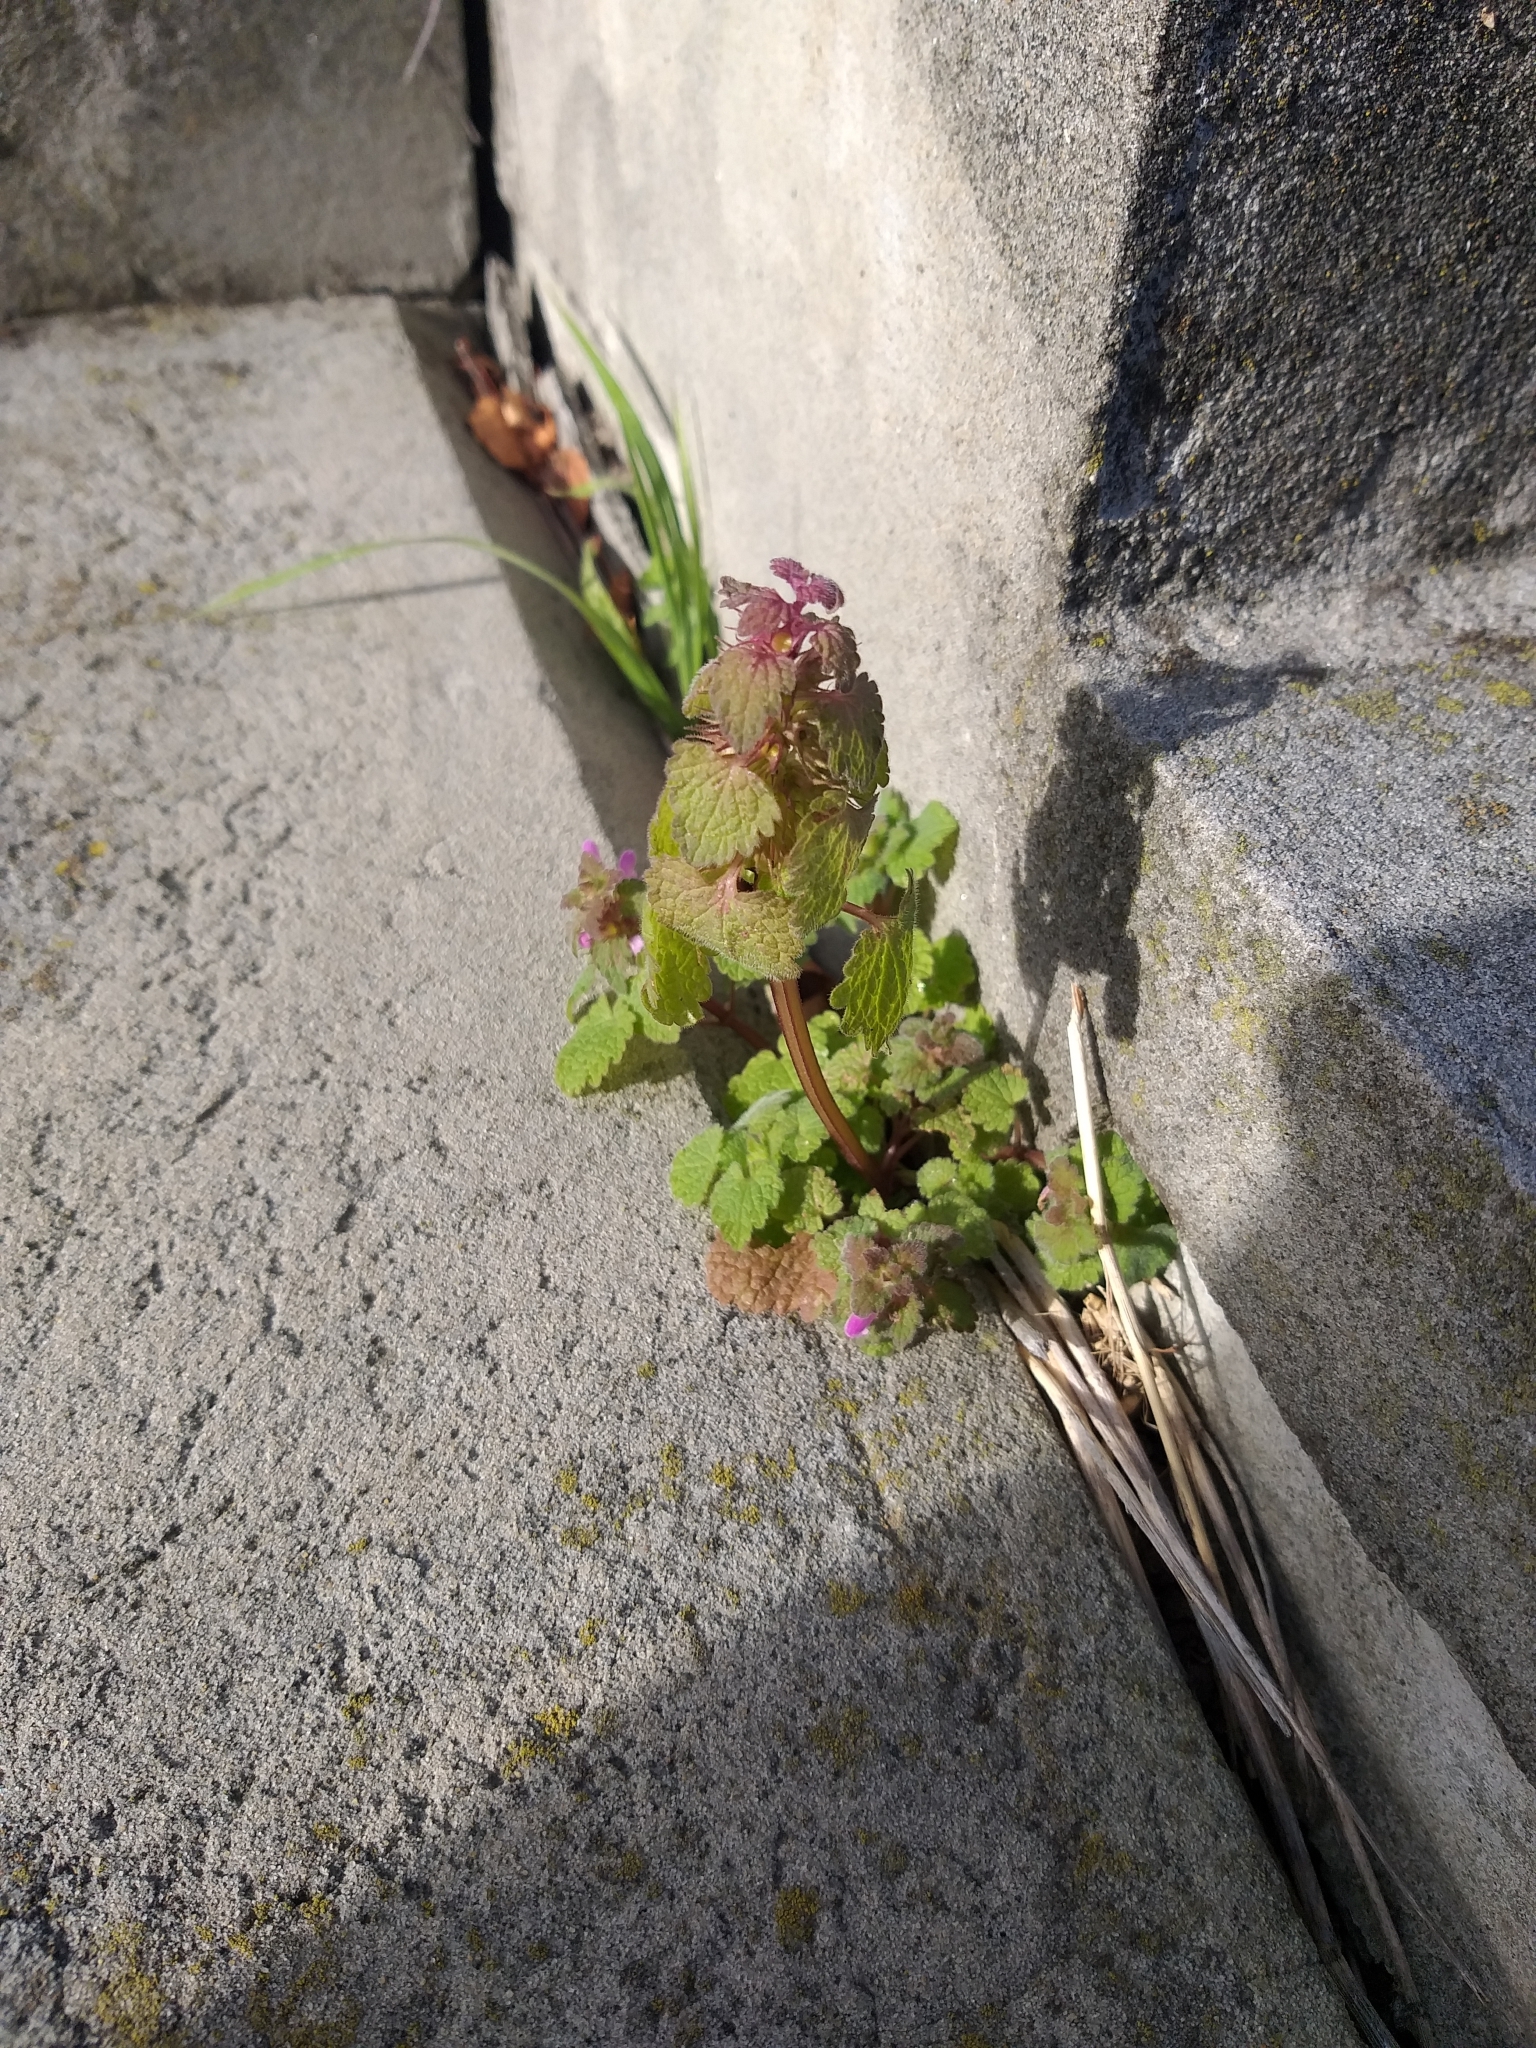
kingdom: Plantae
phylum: Tracheophyta
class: Magnoliopsida
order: Lamiales
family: Lamiaceae
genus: Lamium
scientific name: Lamium purpureum
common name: Red dead-nettle
